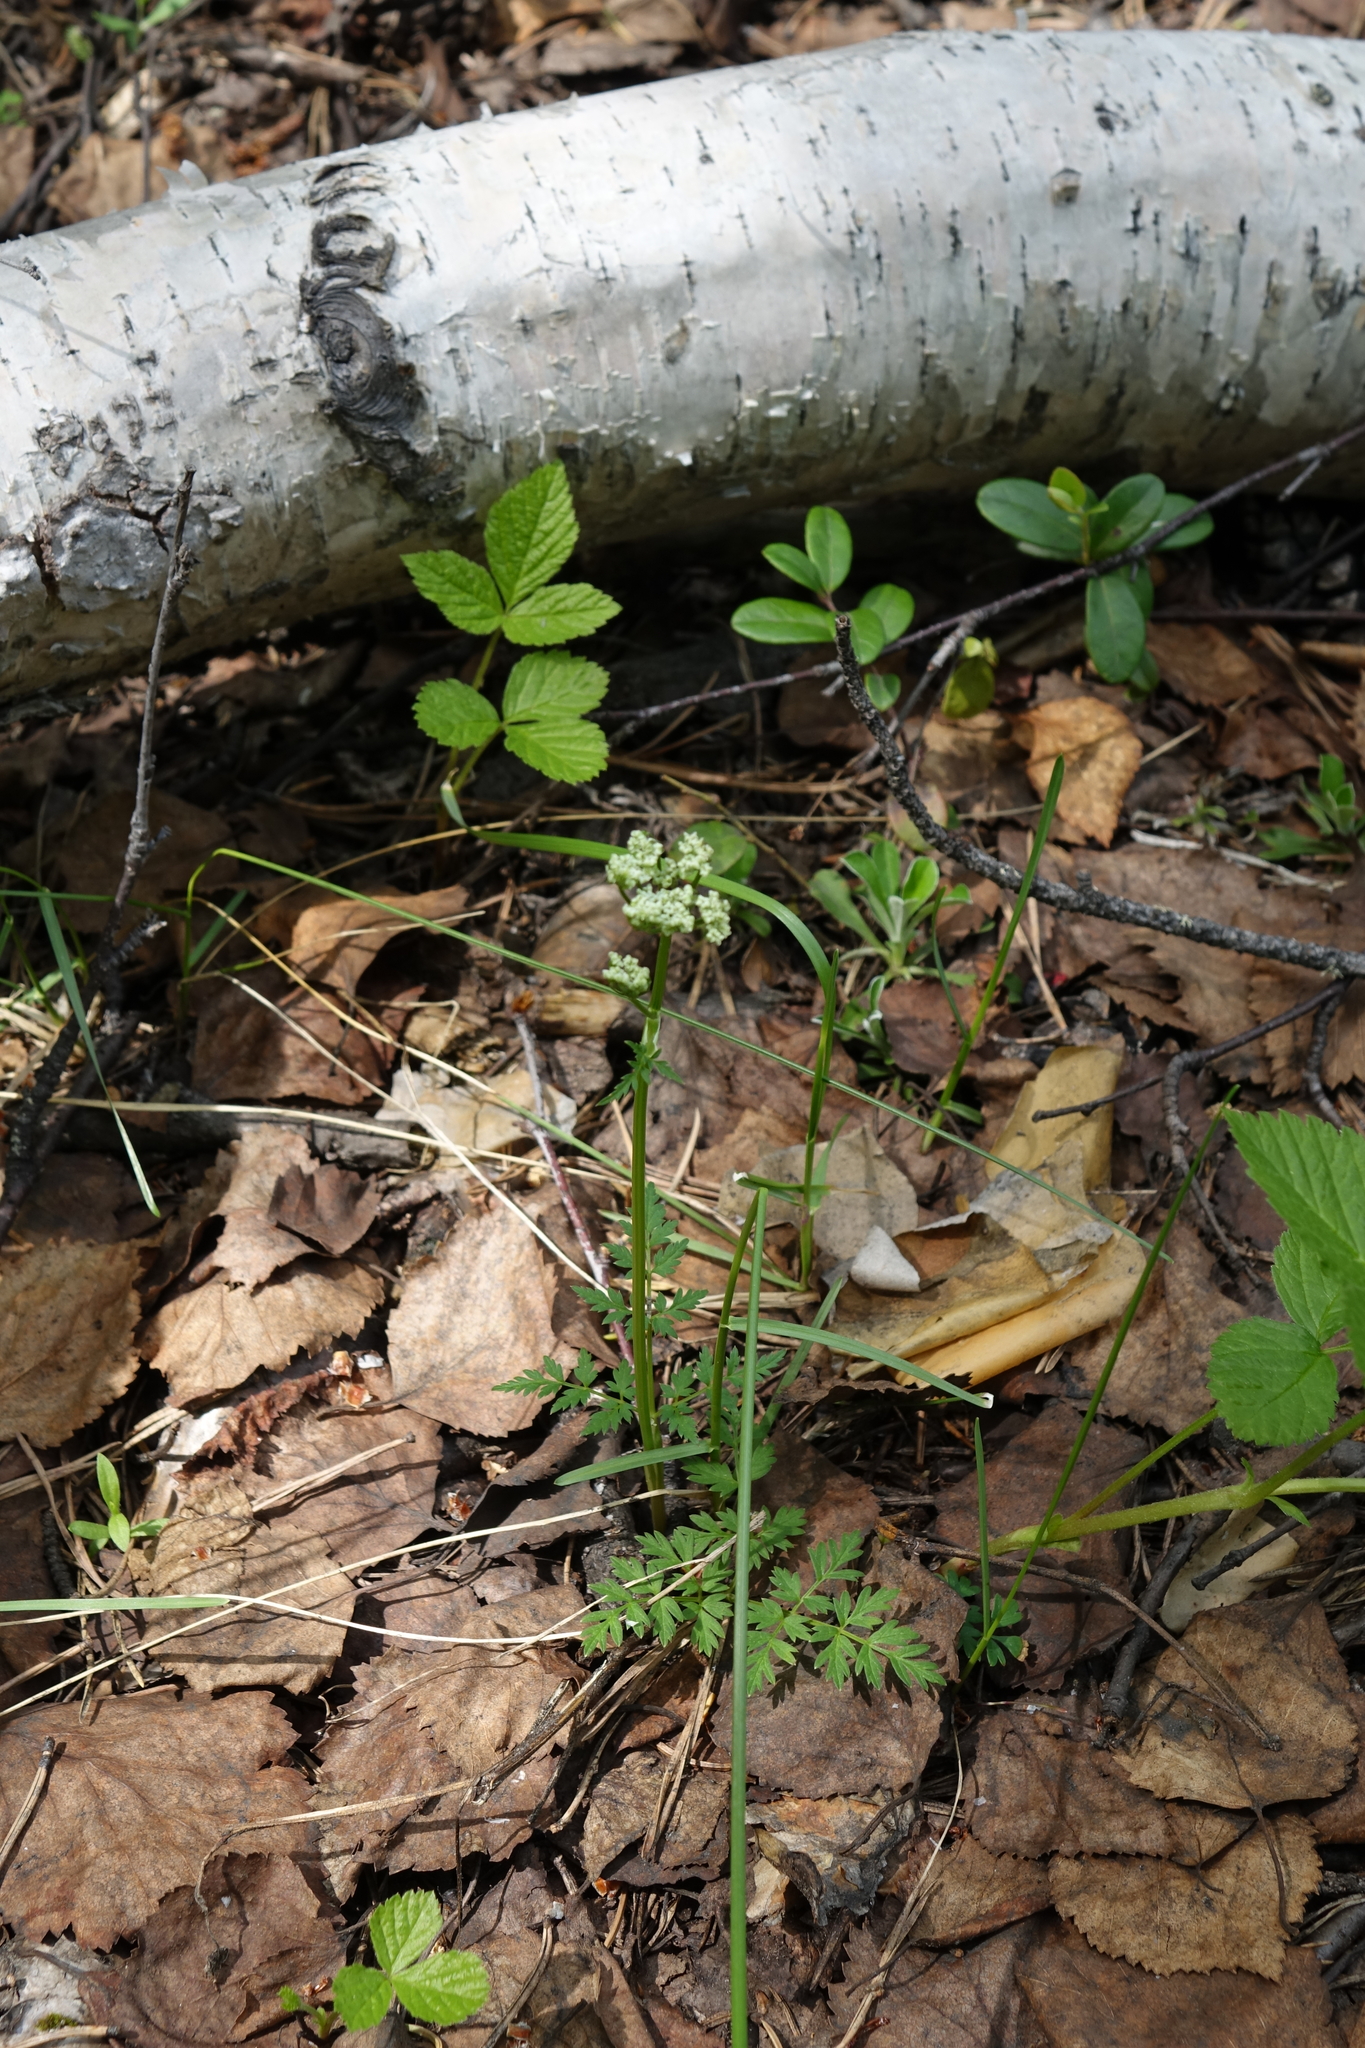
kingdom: Plantae
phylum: Tracheophyta
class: Magnoliopsida
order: Apiales
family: Apiaceae
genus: Aegopodium
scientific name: Aegopodium alpestre
